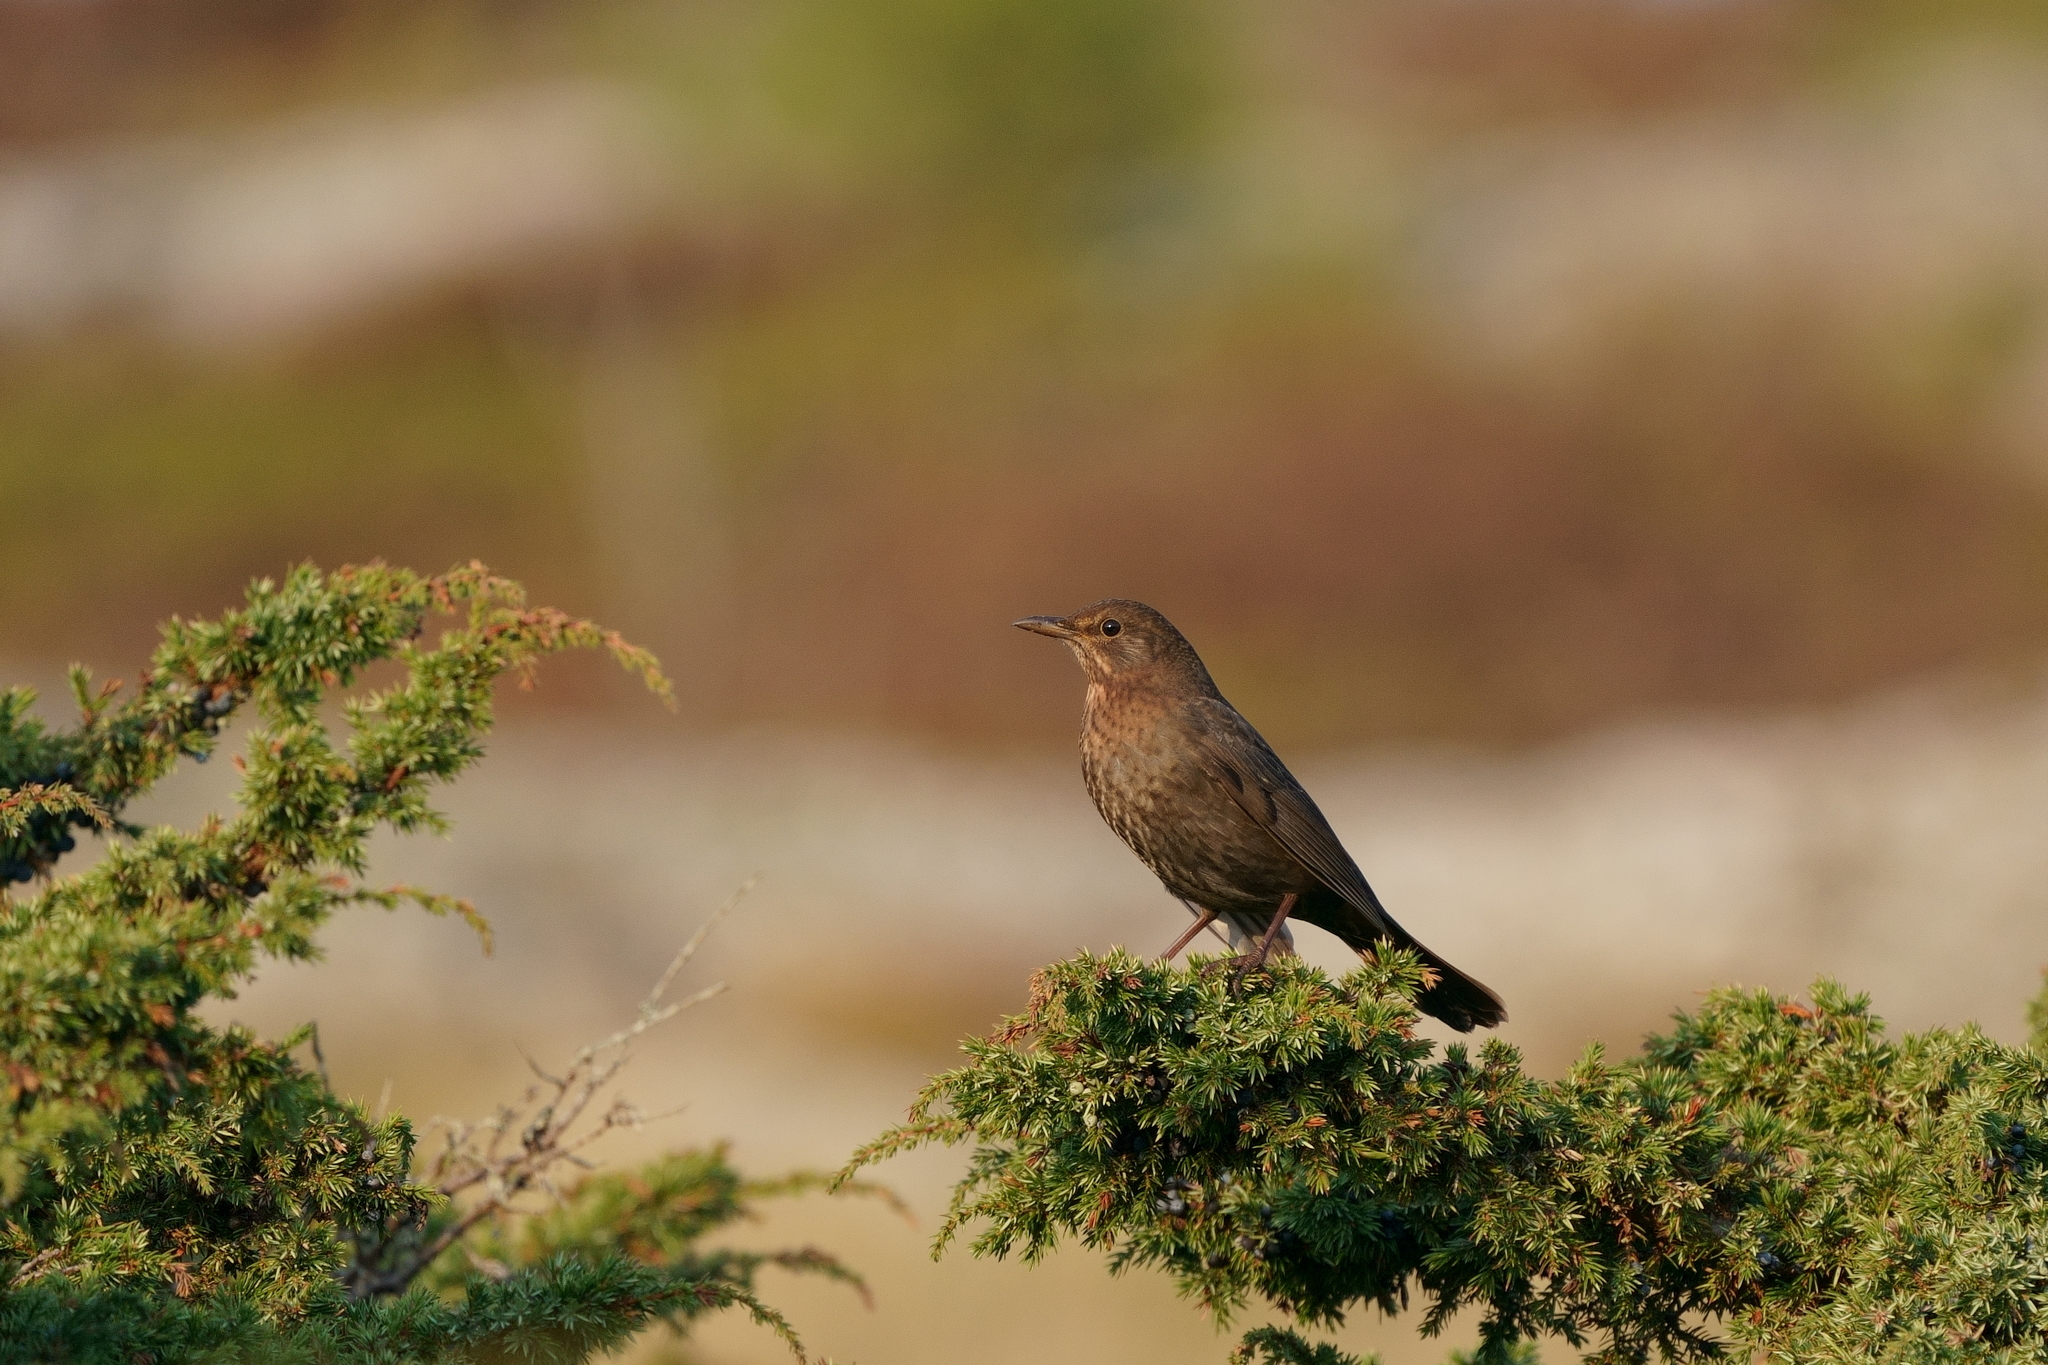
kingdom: Animalia
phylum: Chordata
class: Aves
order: Passeriformes
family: Turdidae
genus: Turdus
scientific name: Turdus merula
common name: Common blackbird
